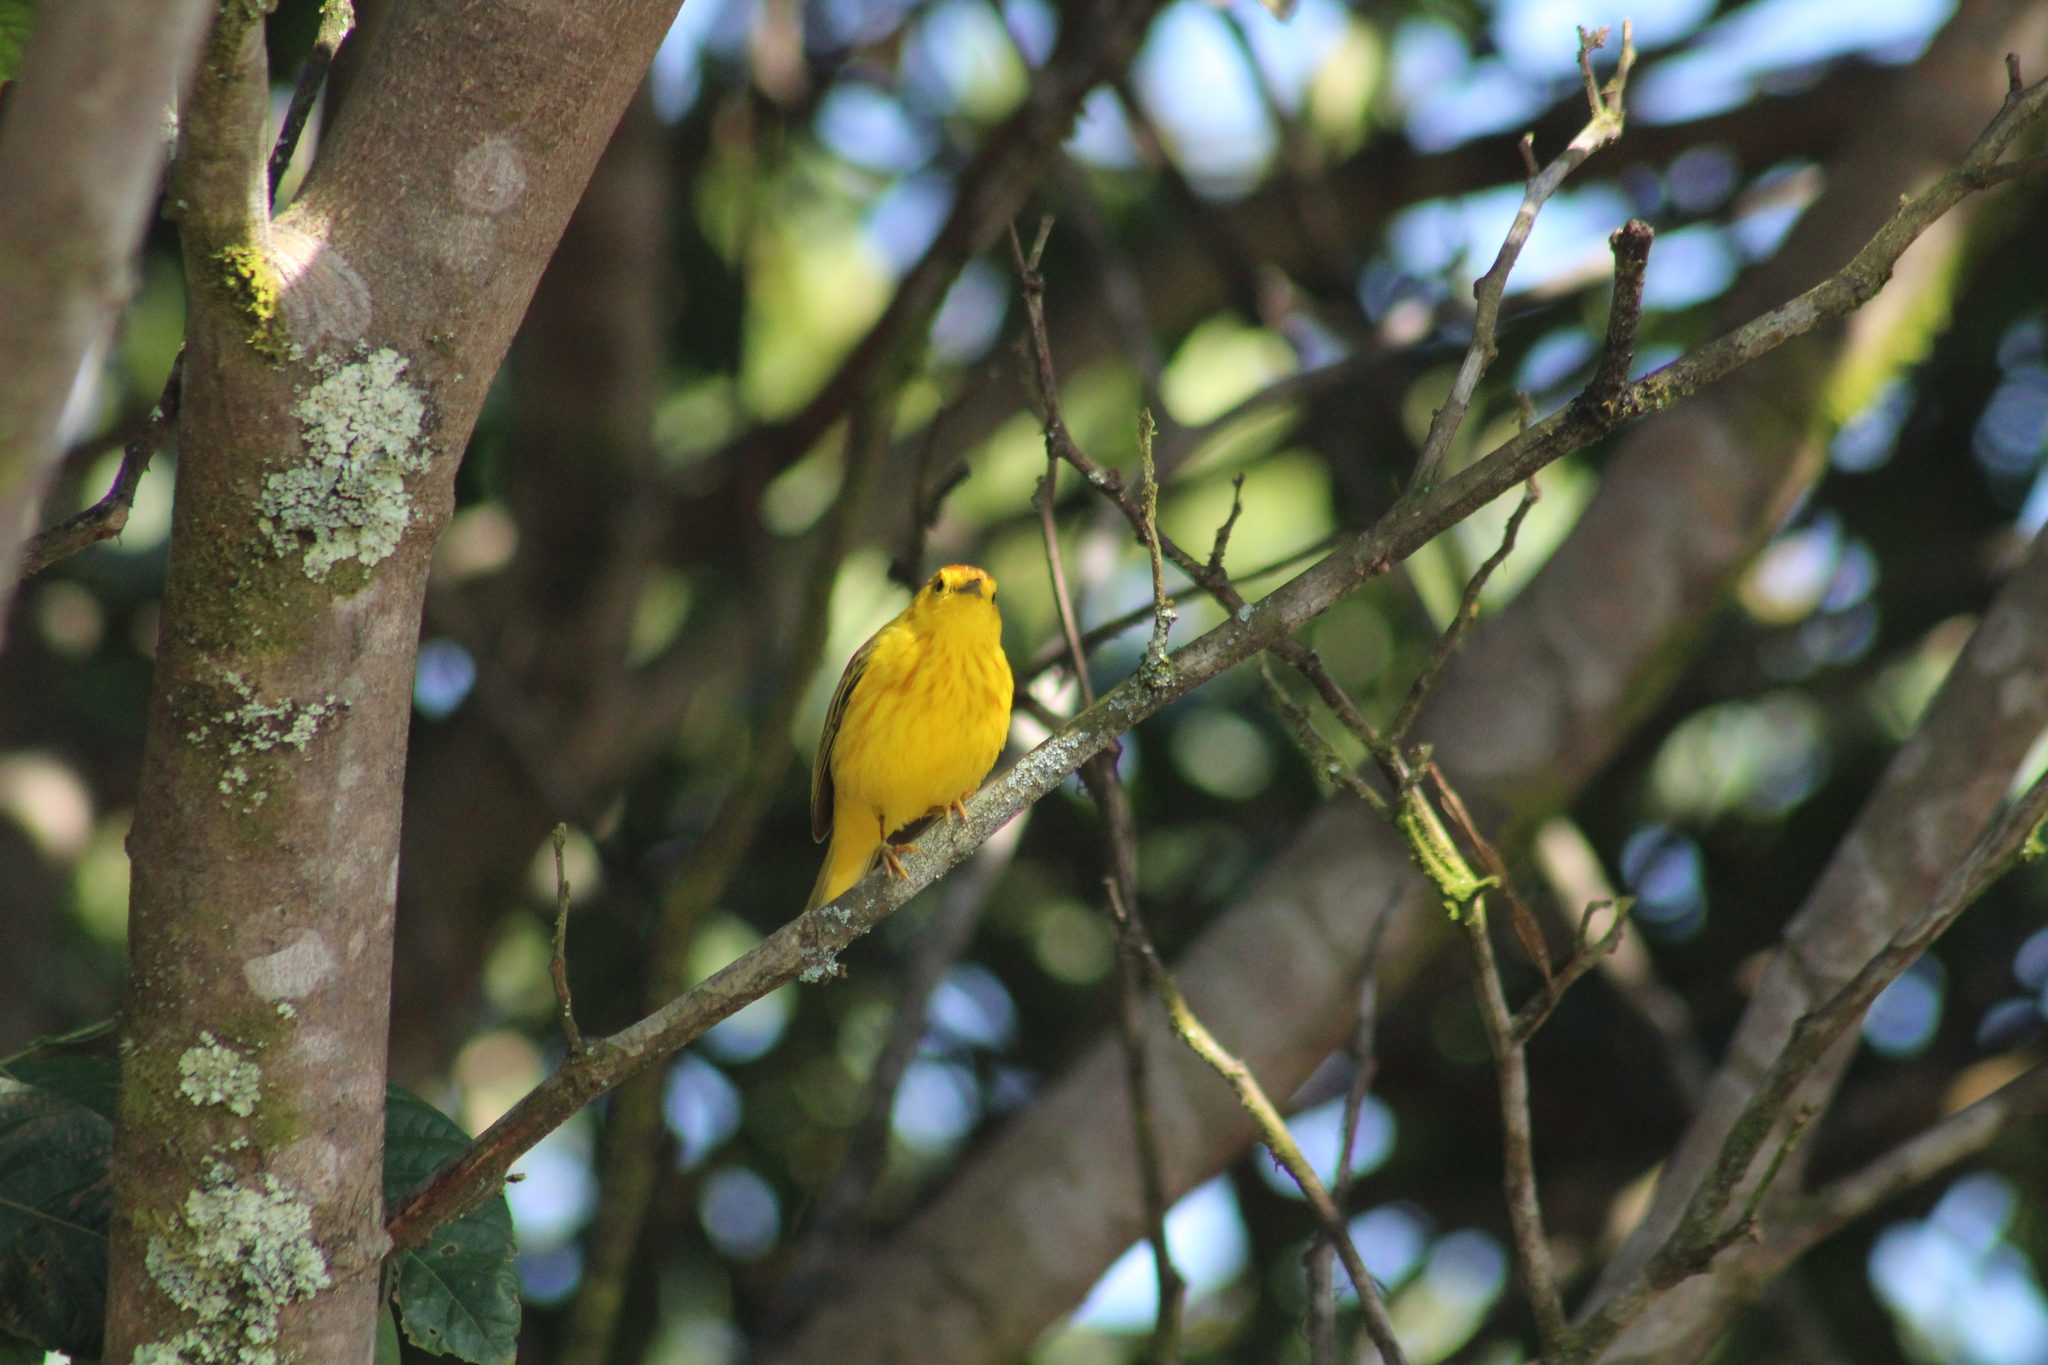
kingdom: Animalia
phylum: Chordata
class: Aves
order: Passeriformes
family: Parulidae
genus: Setophaga
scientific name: Setophaga petechia
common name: Yellow warbler
